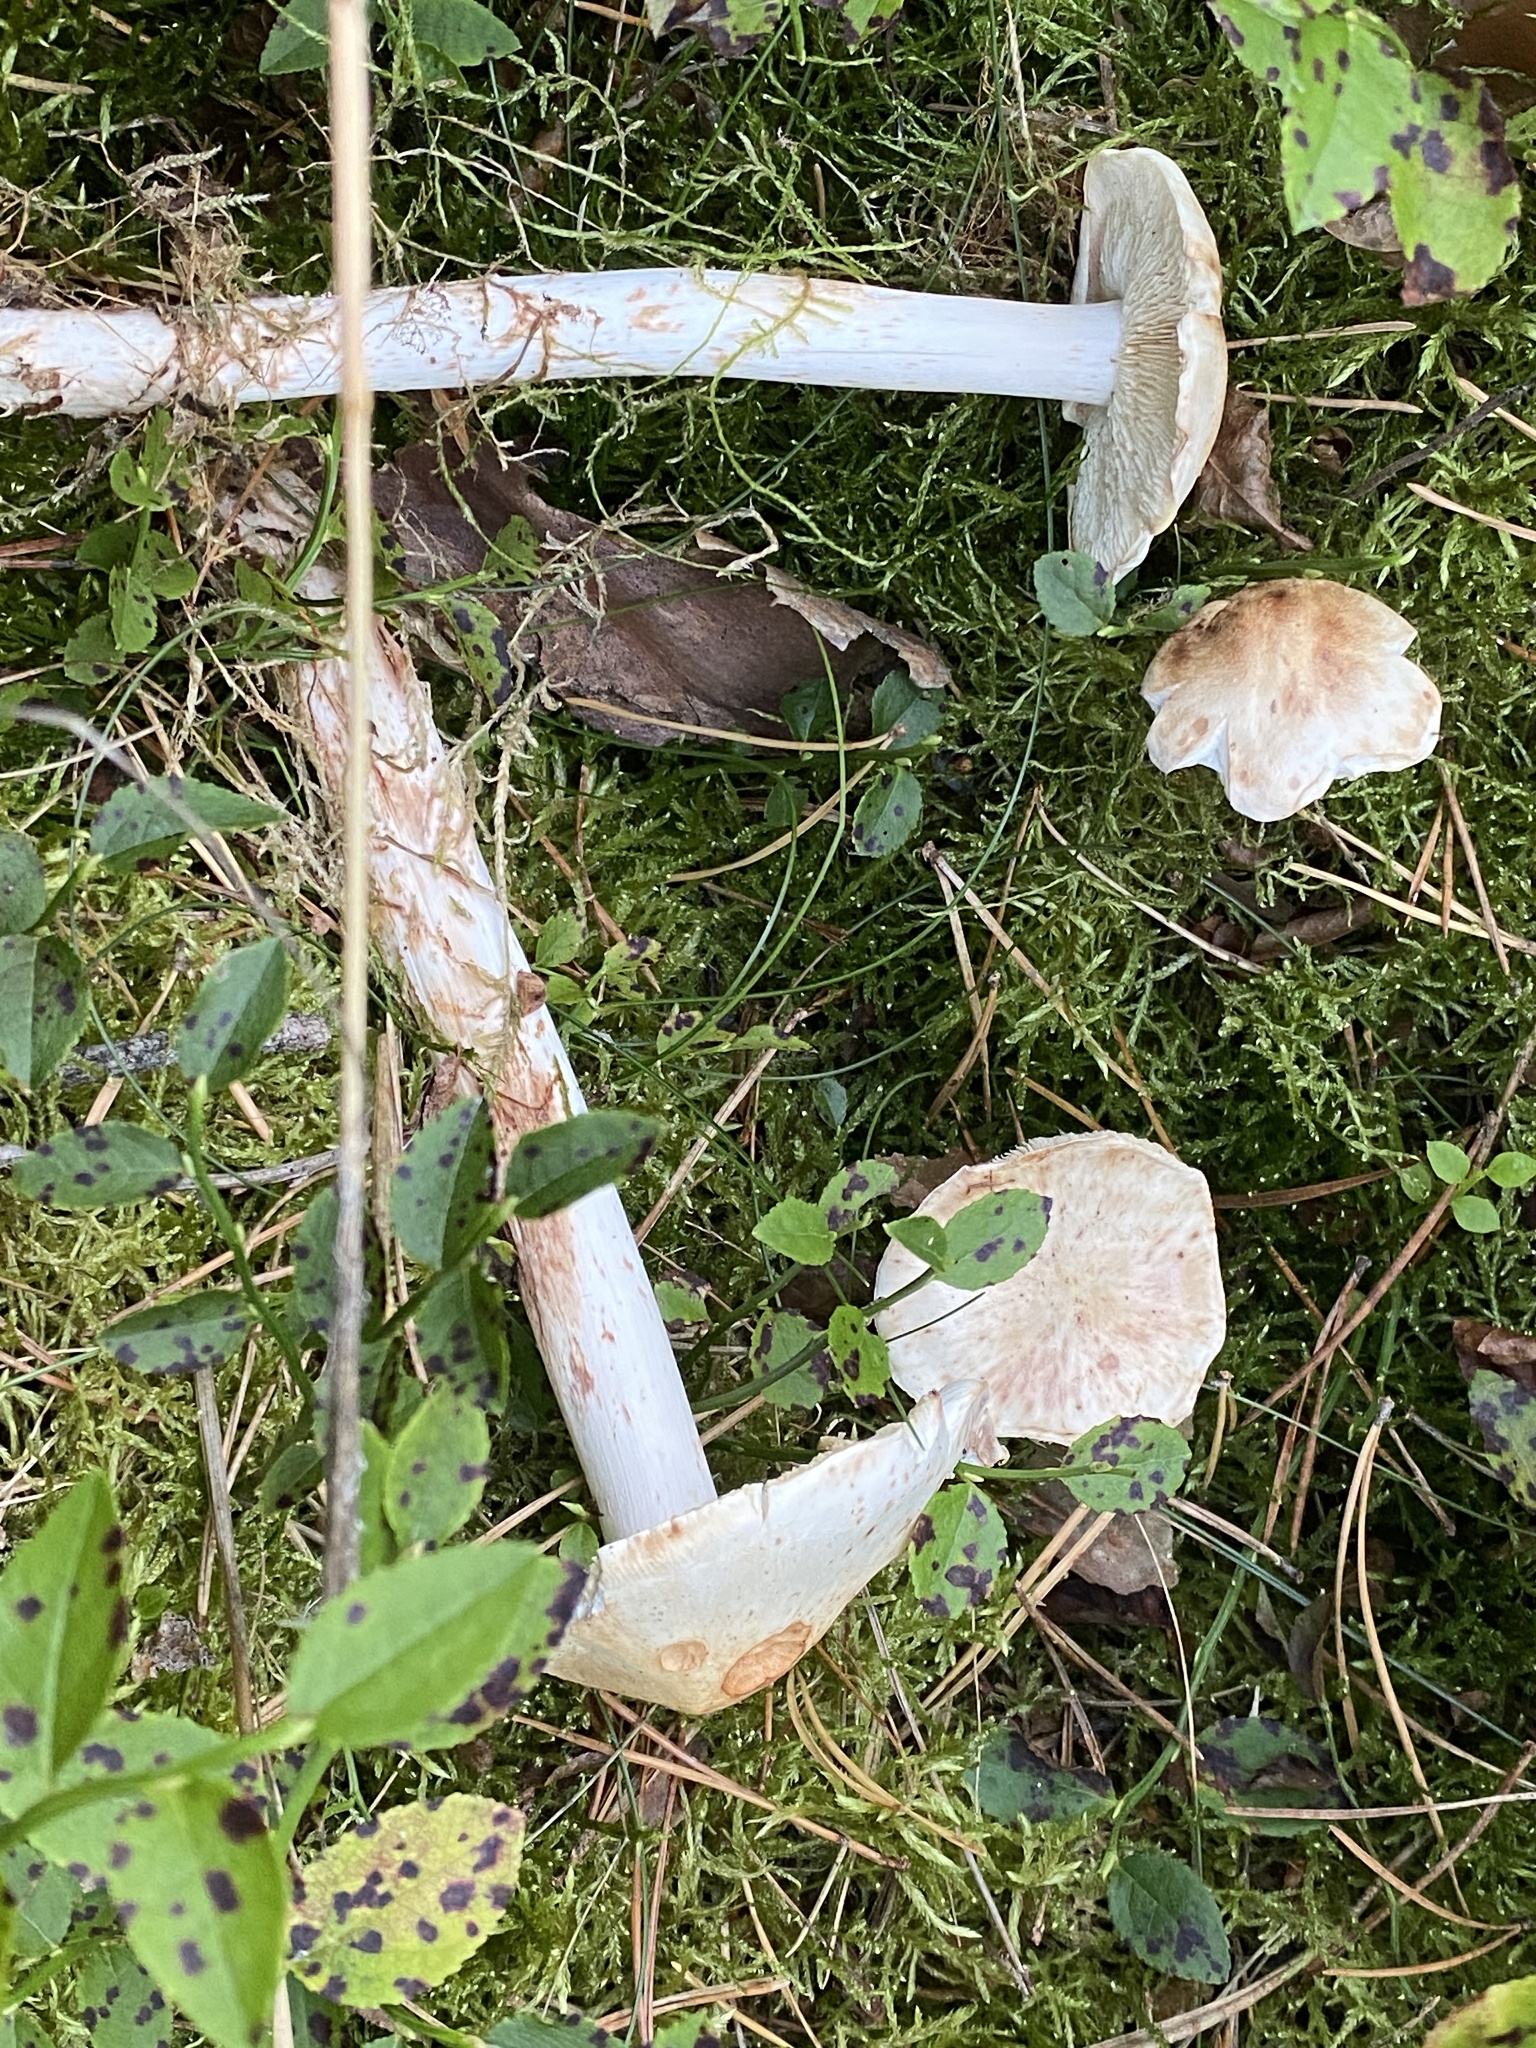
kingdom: Fungi
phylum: Basidiomycota
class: Agaricomycetes
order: Agaricales
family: Omphalotaceae
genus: Rhodocollybia
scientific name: Rhodocollybia maculata
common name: Spotted tough-shank
